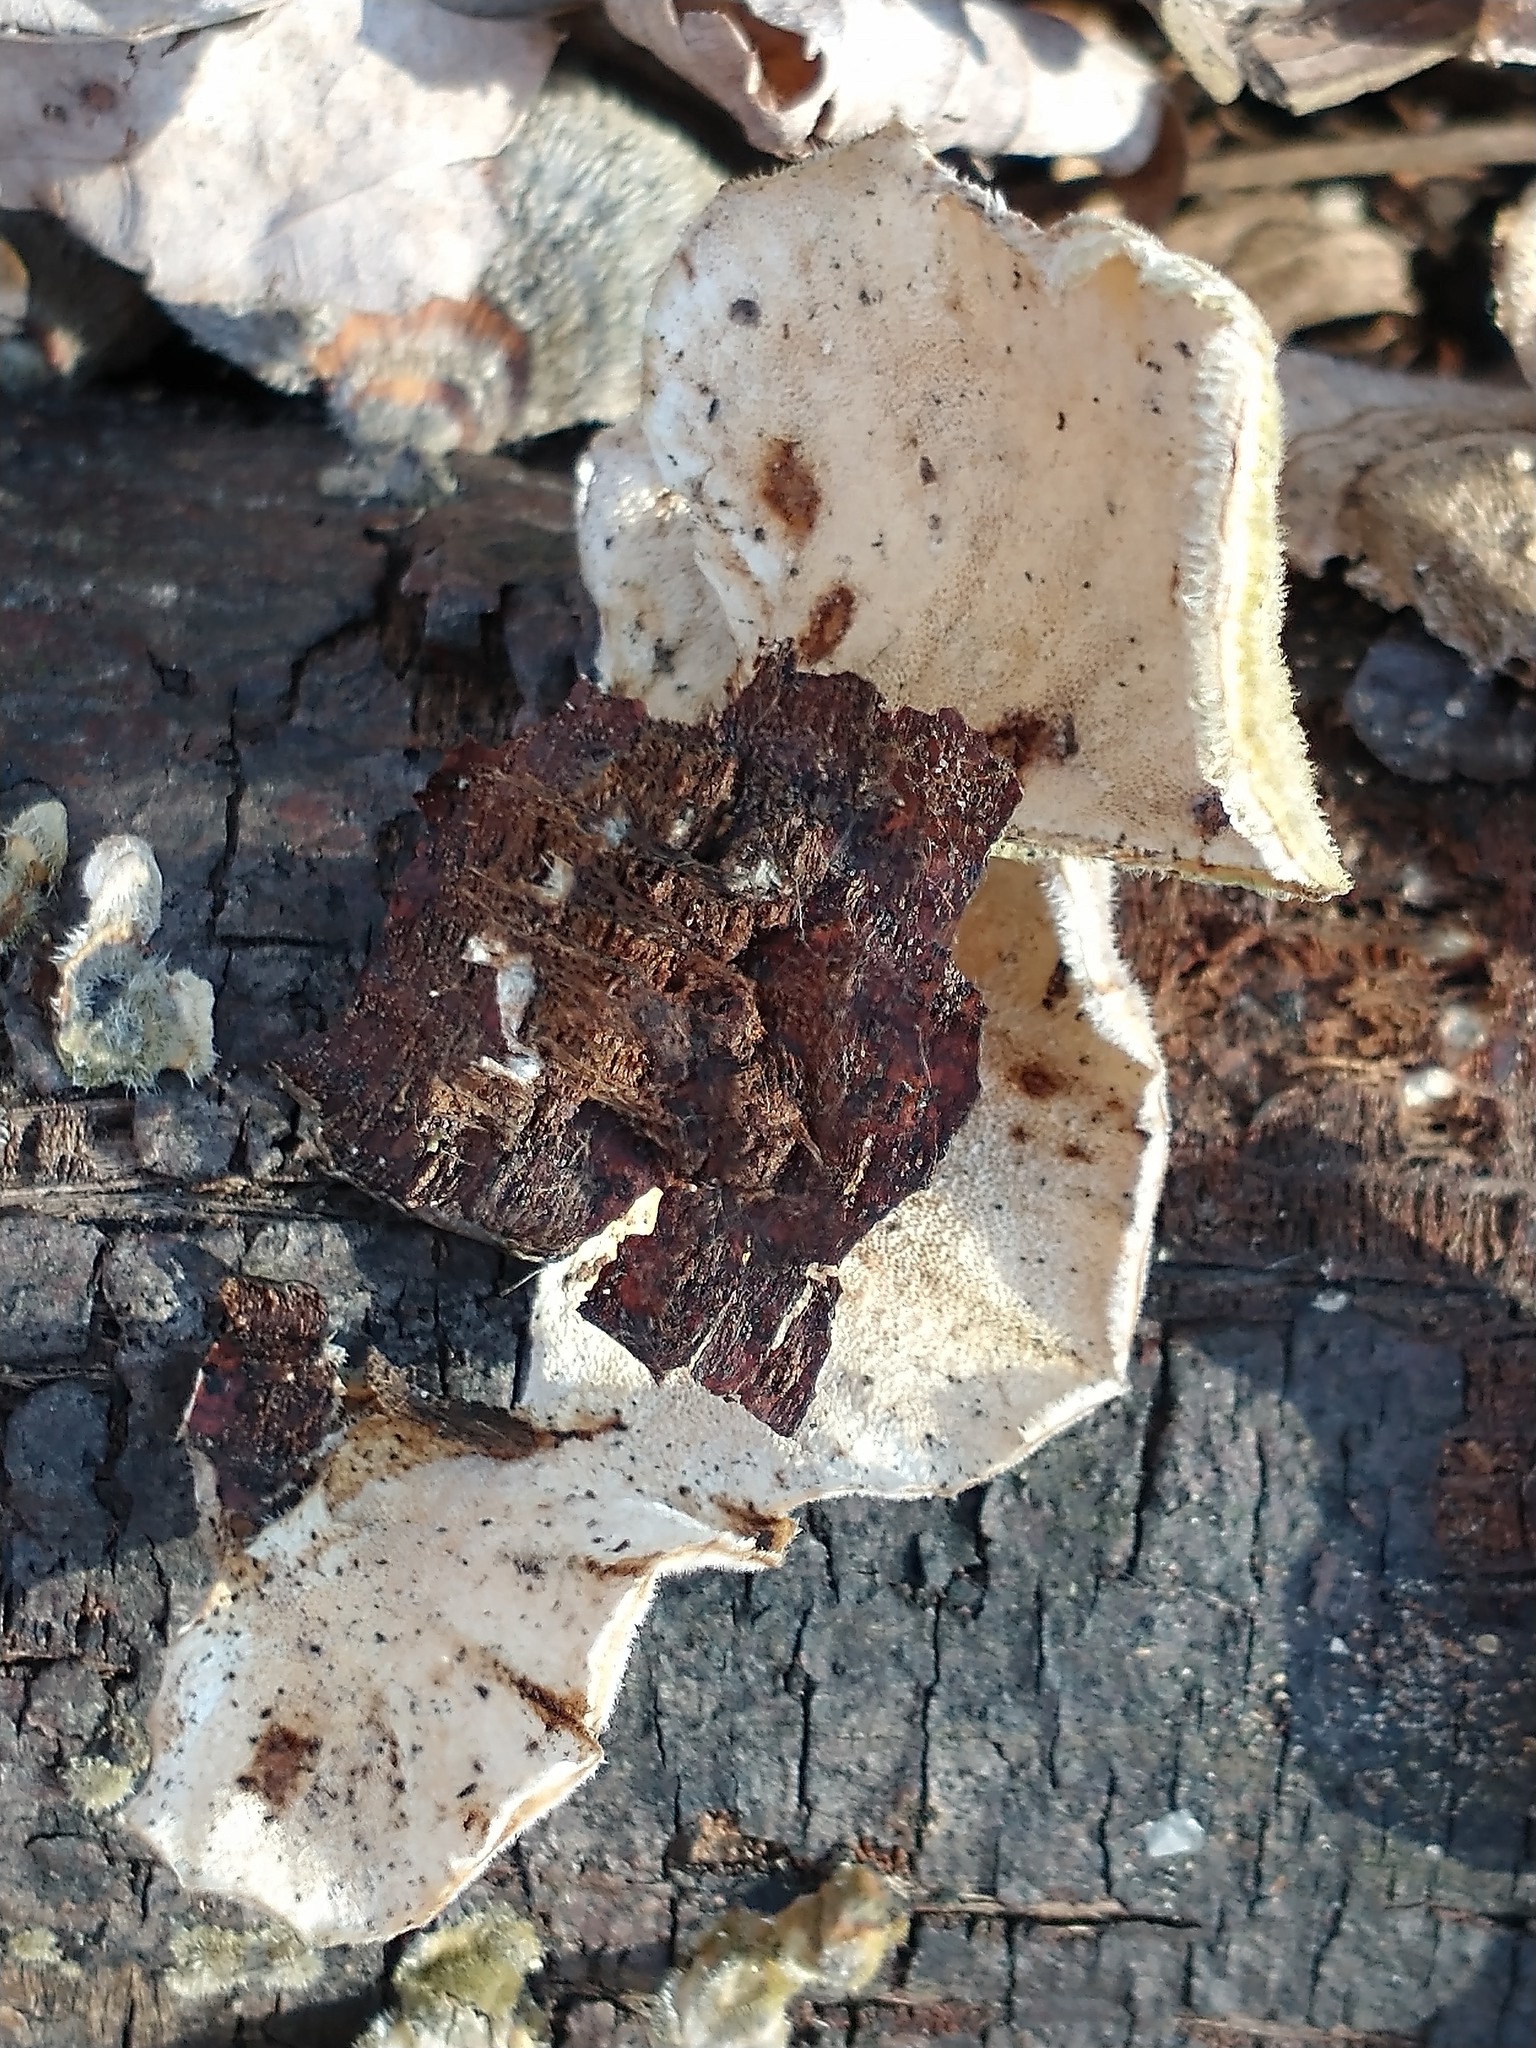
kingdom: Fungi
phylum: Basidiomycota
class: Agaricomycetes
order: Polyporales
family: Polyporaceae
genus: Trametes
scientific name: Trametes versicolor
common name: Turkeytail
